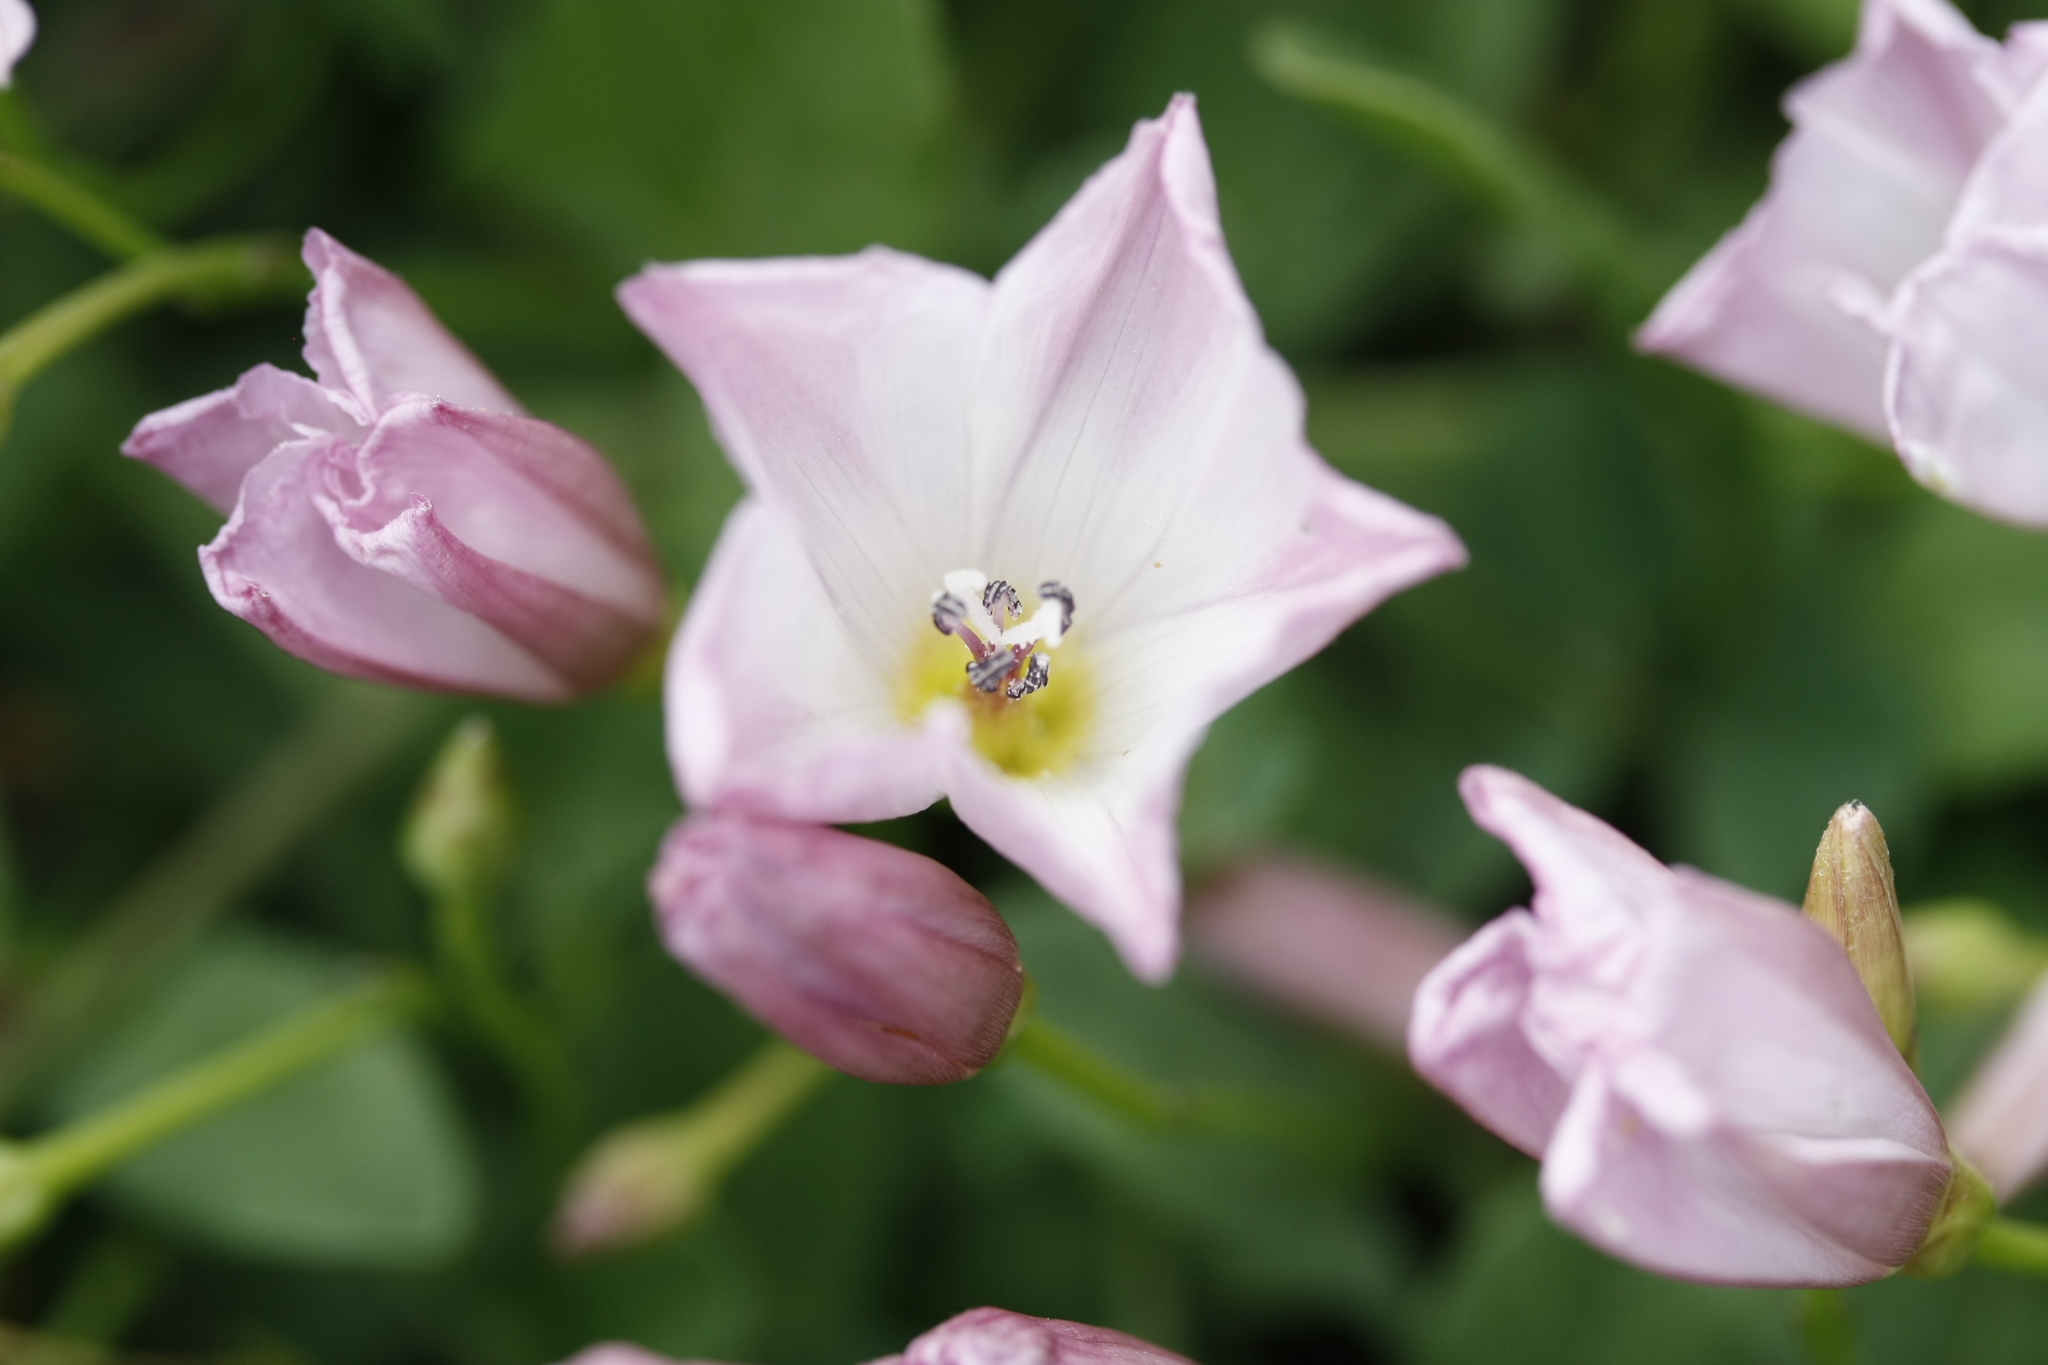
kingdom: Plantae
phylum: Tracheophyta
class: Magnoliopsida
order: Solanales
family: Convolvulaceae
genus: Convolvulus
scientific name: Convolvulus arvensis
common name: Field bindweed
